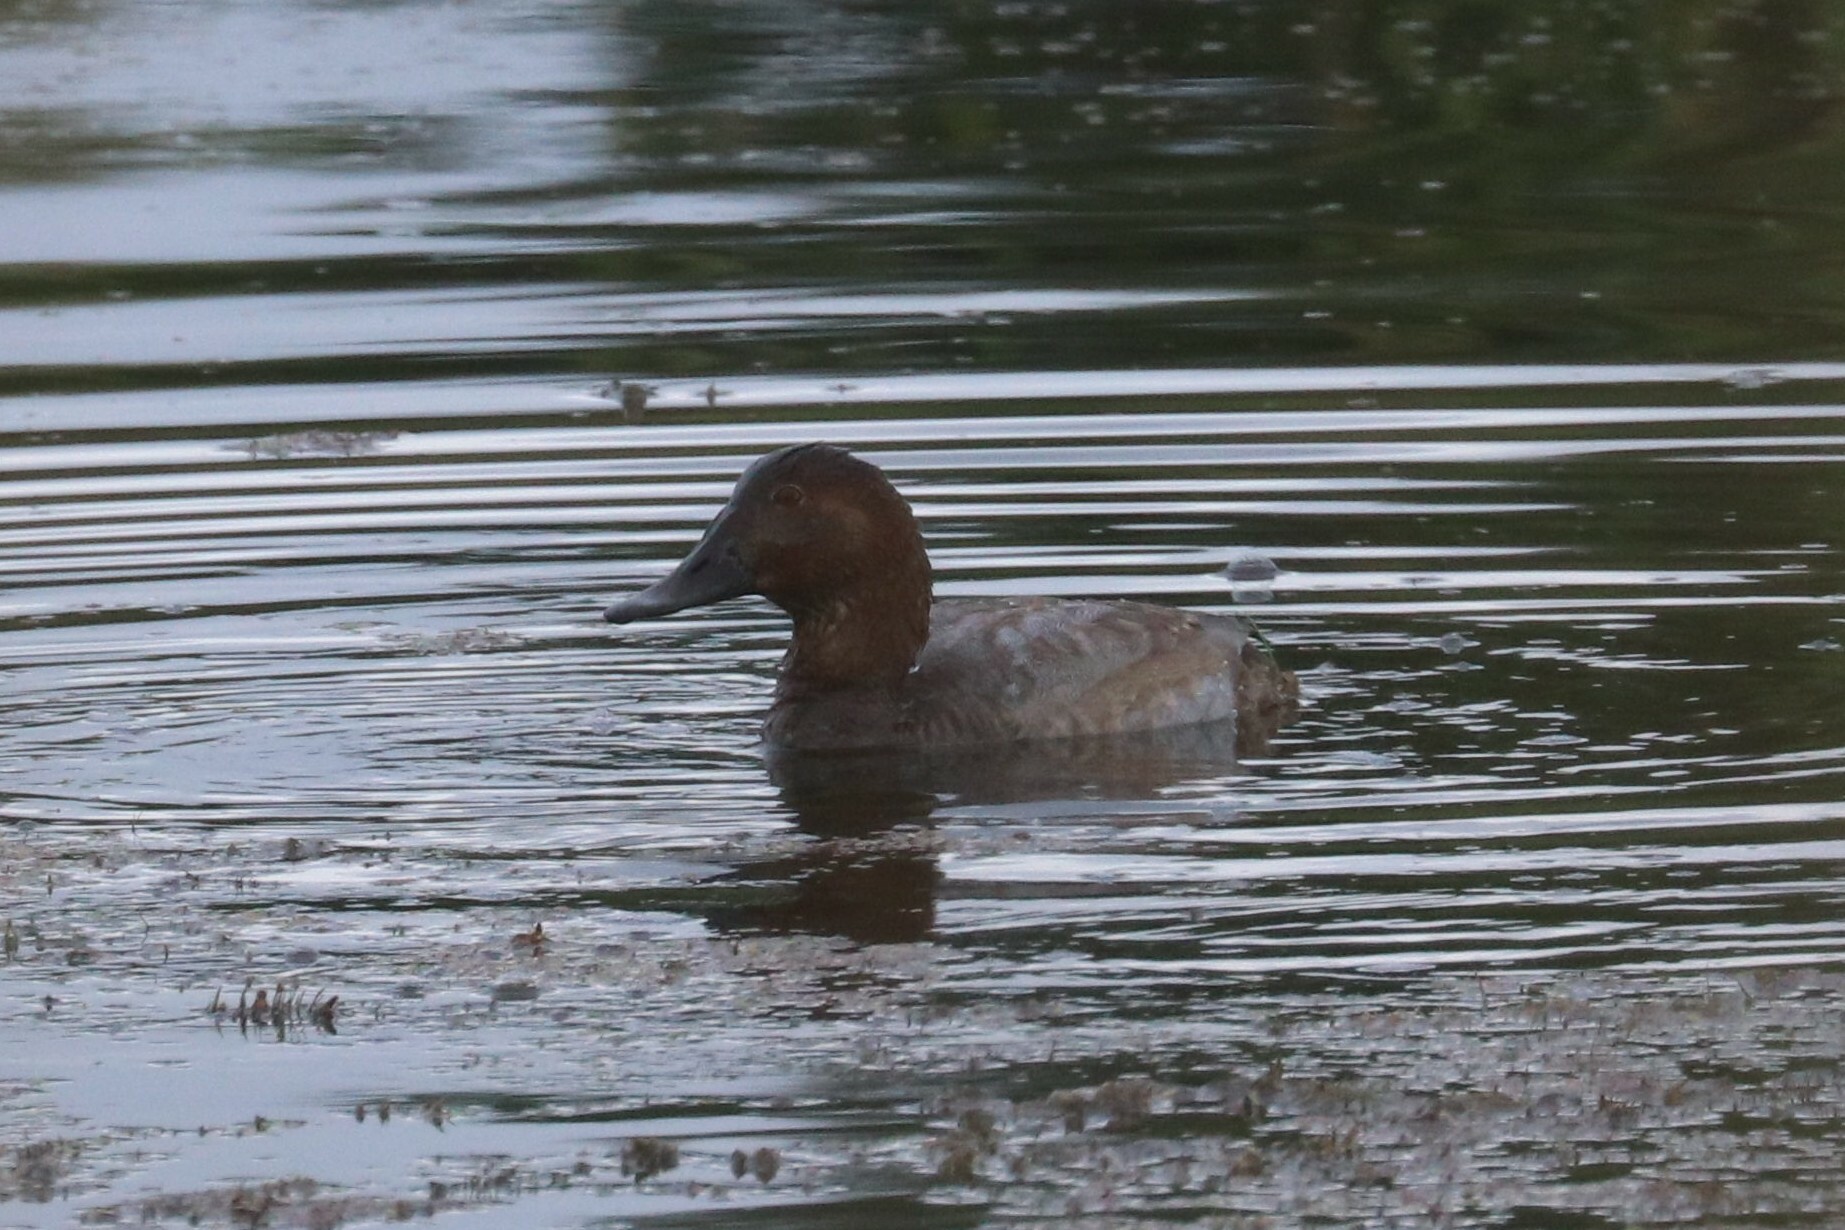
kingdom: Animalia
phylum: Chordata
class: Aves
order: Anseriformes
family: Anatidae
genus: Aythya
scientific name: Aythya ferina
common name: Common pochard
